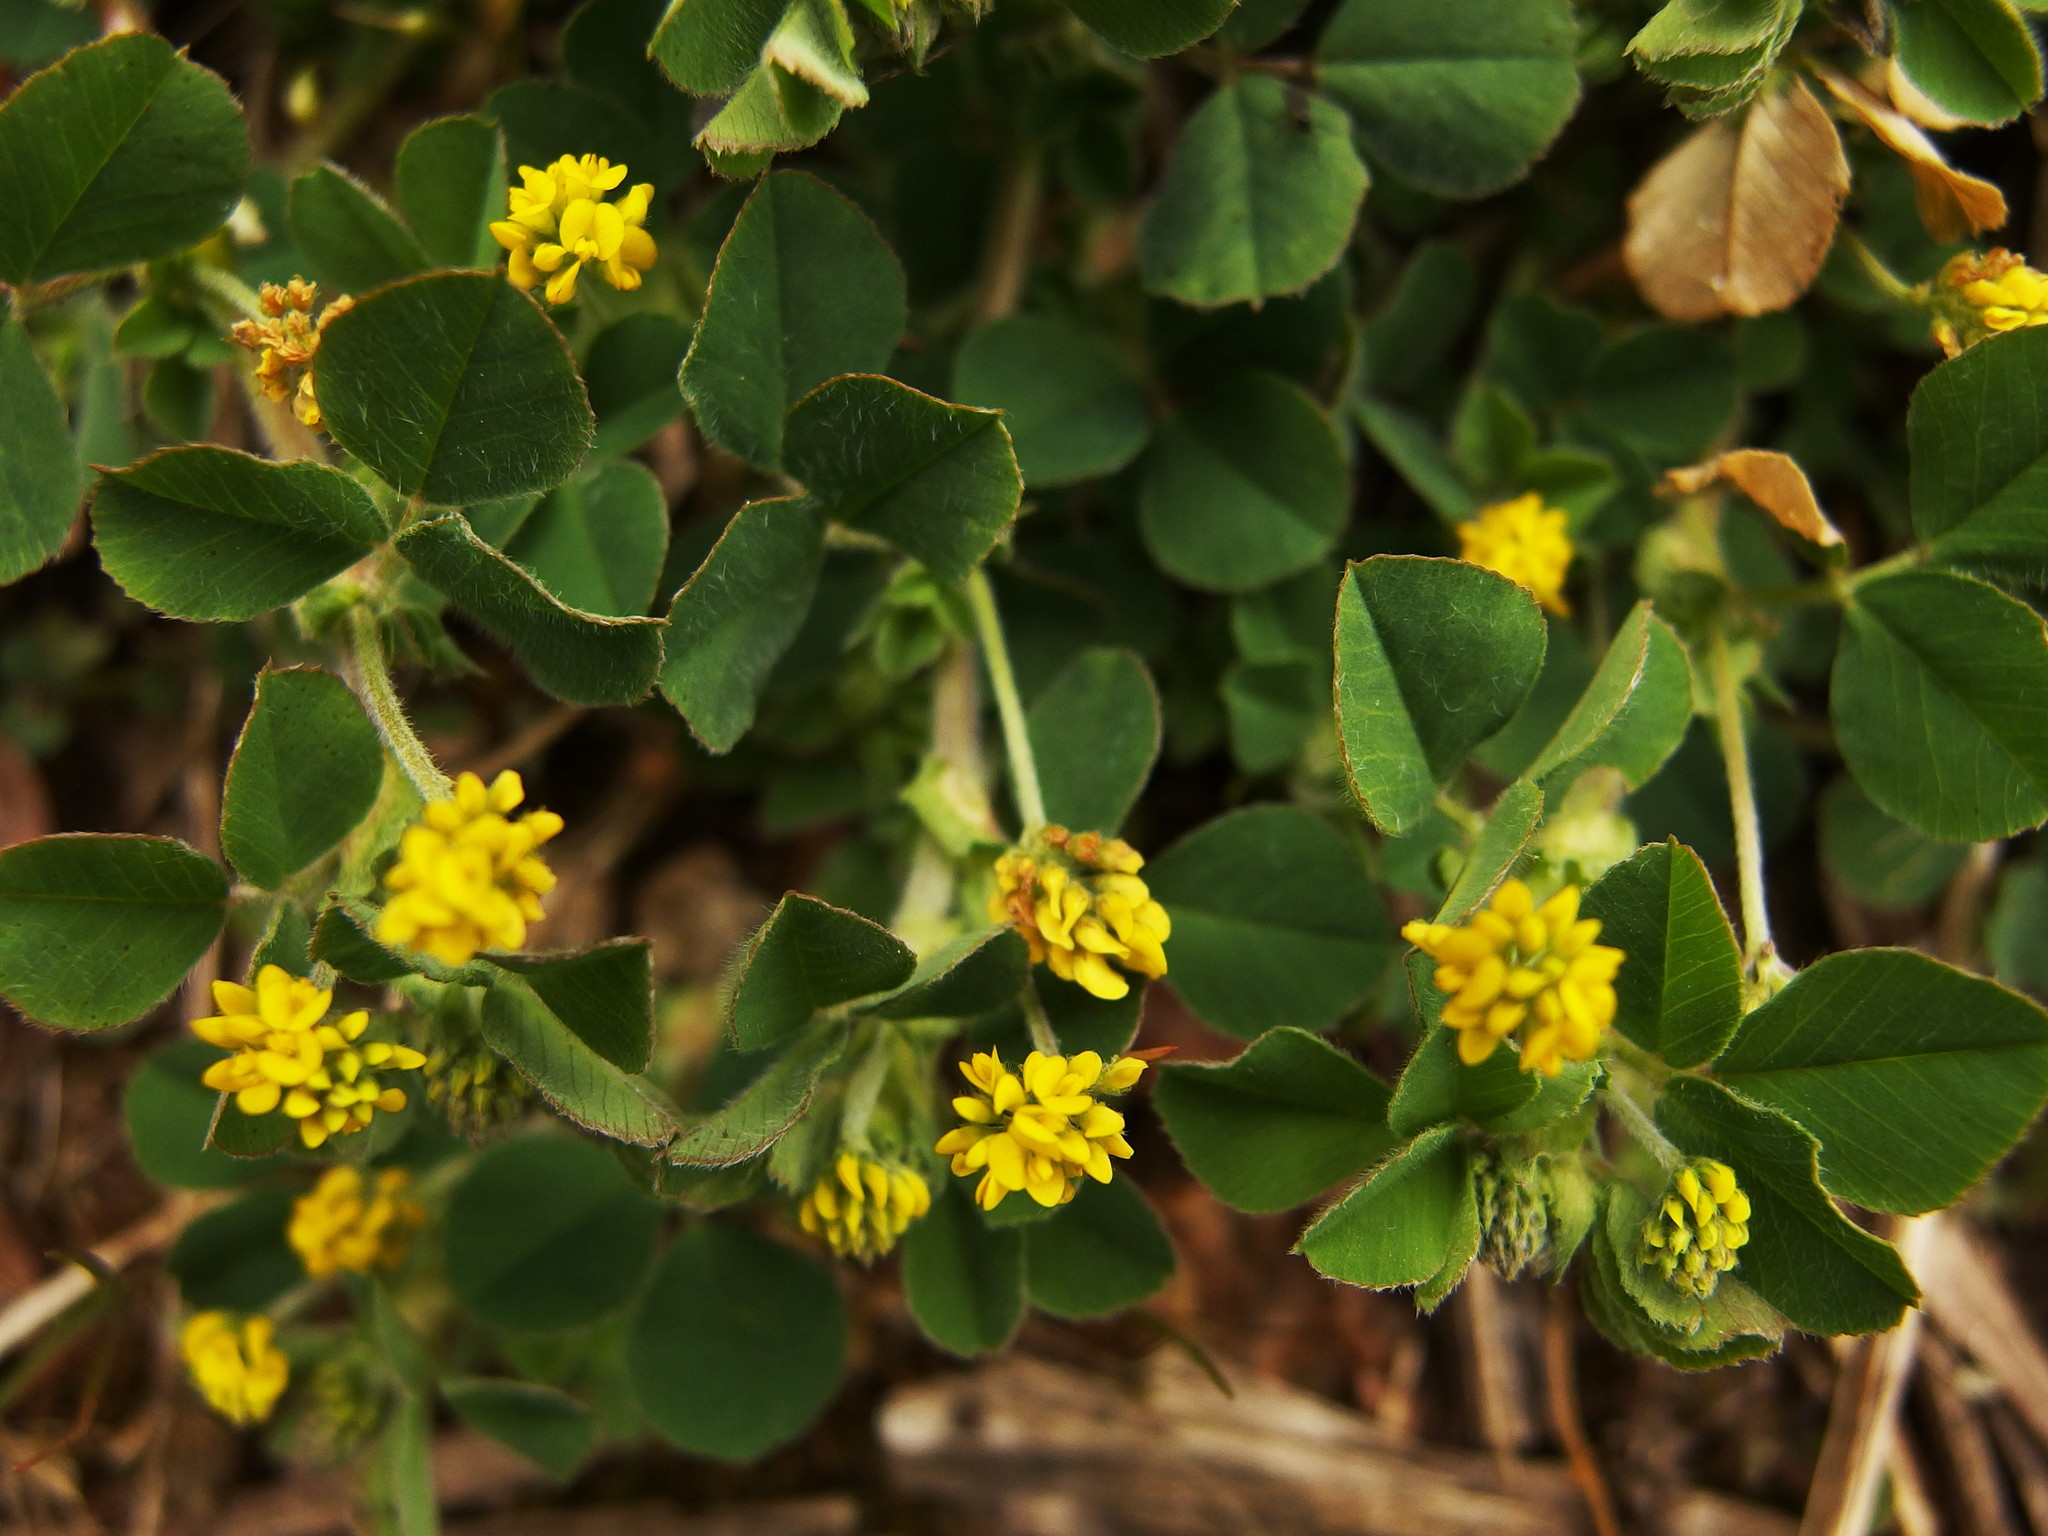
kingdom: Plantae
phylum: Tracheophyta
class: Magnoliopsida
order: Fabales
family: Fabaceae
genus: Medicago
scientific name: Medicago lupulina
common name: Black medick
